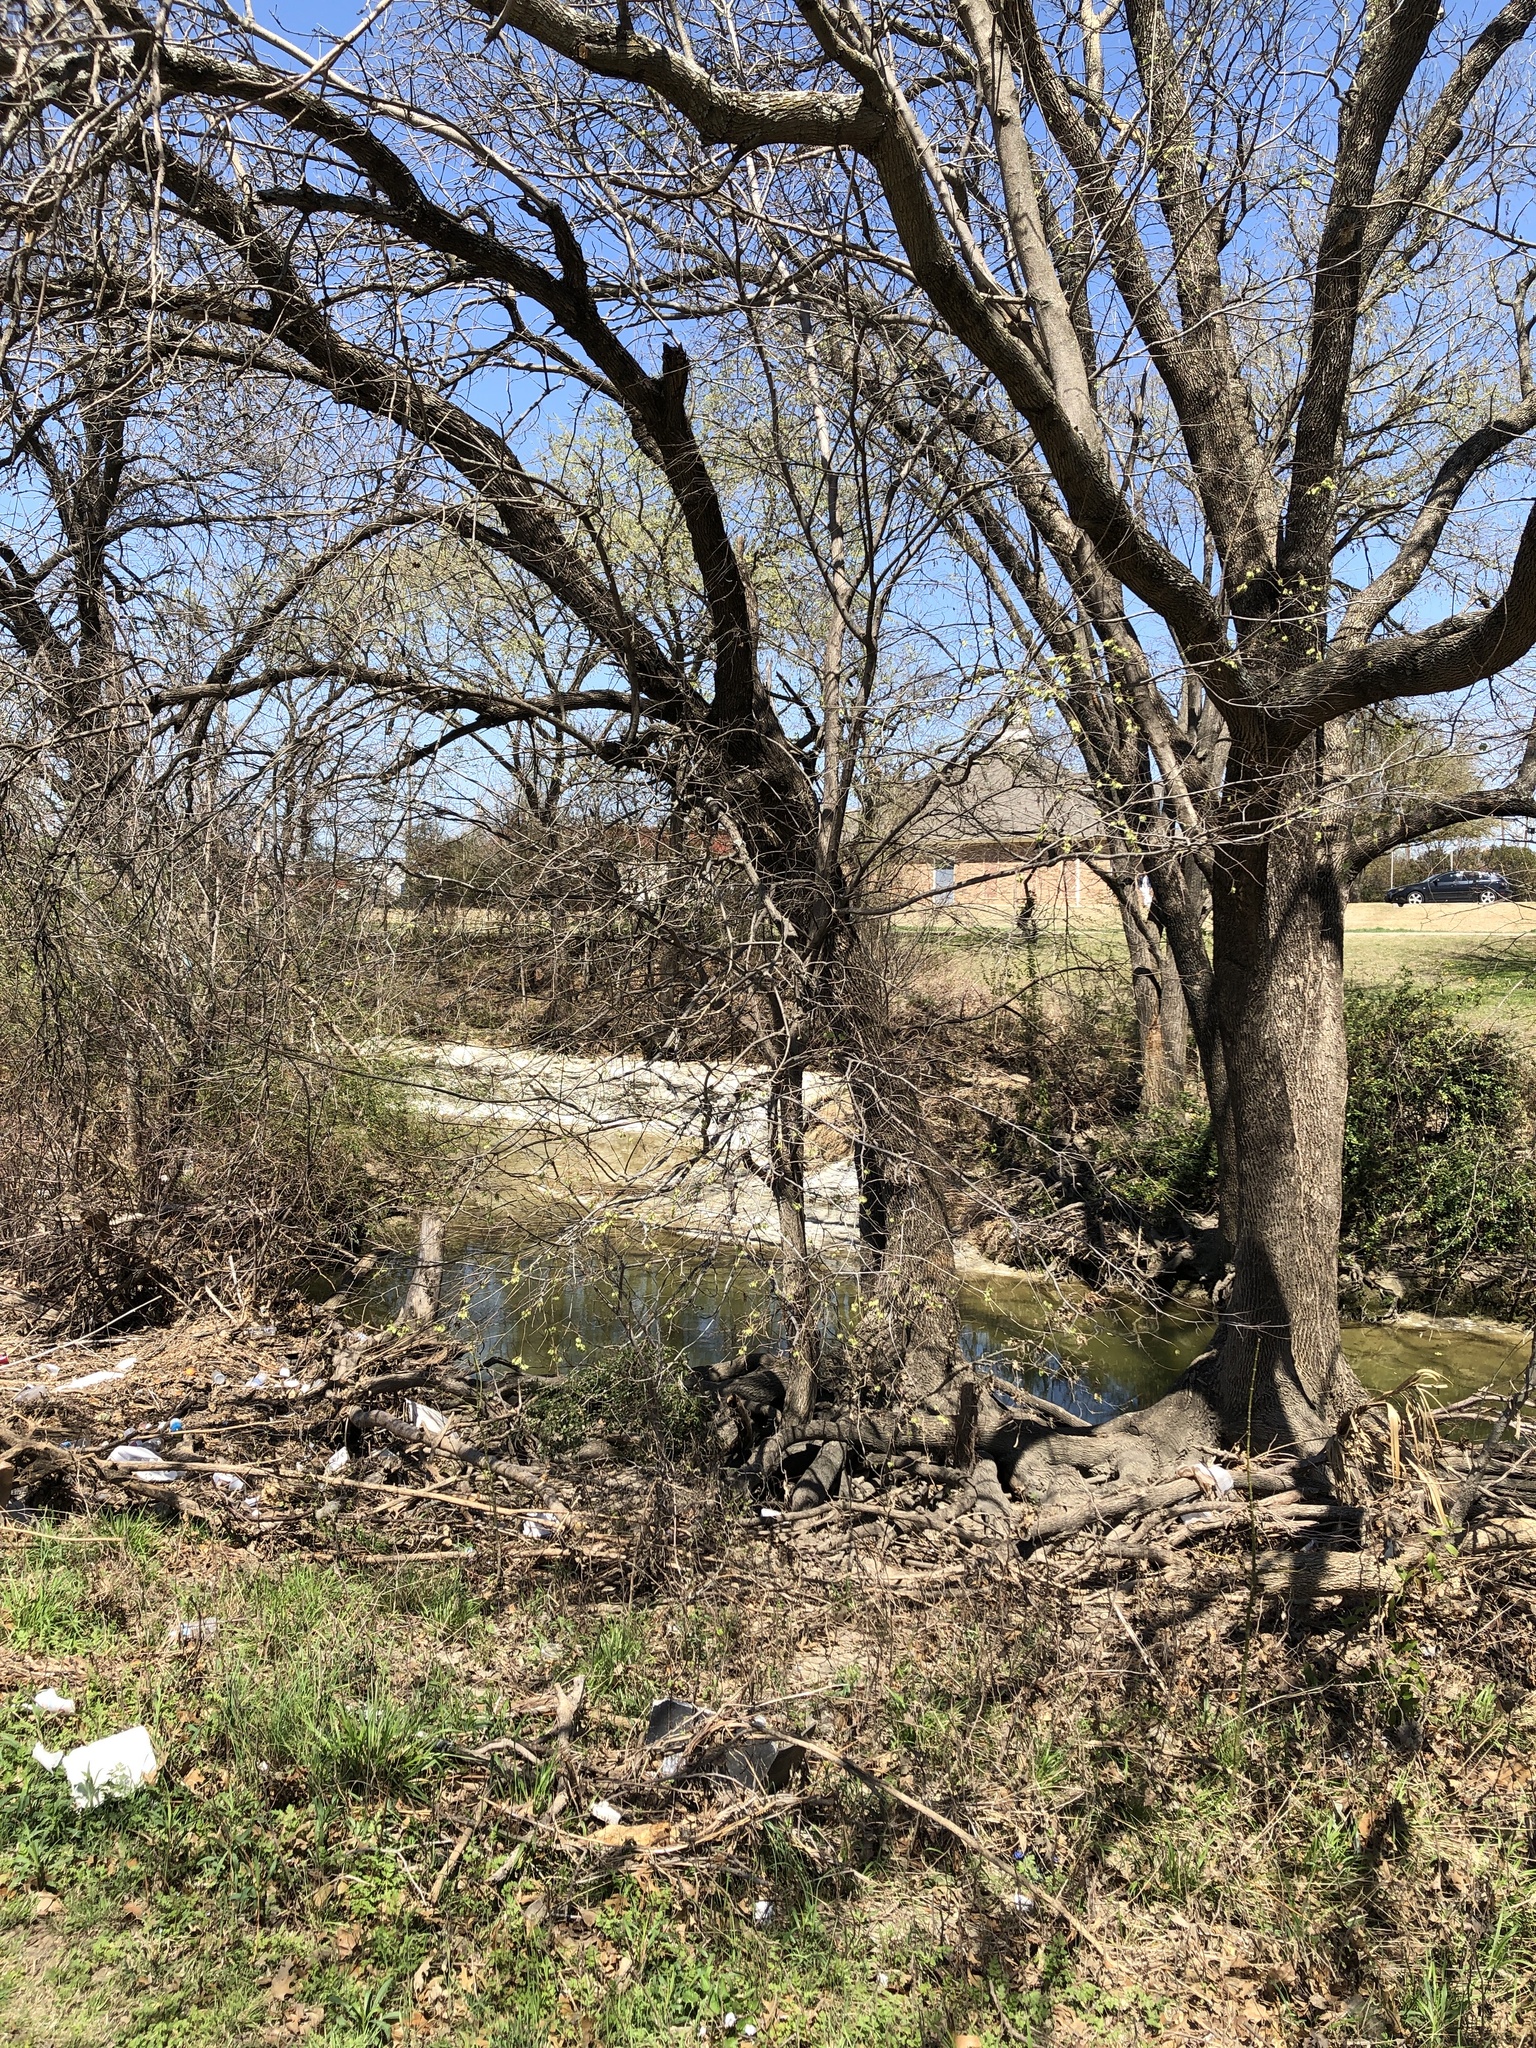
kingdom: Plantae
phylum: Tracheophyta
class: Magnoliopsida
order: Rosales
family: Ulmaceae
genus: Ulmus
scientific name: Ulmus americana
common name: American elm
